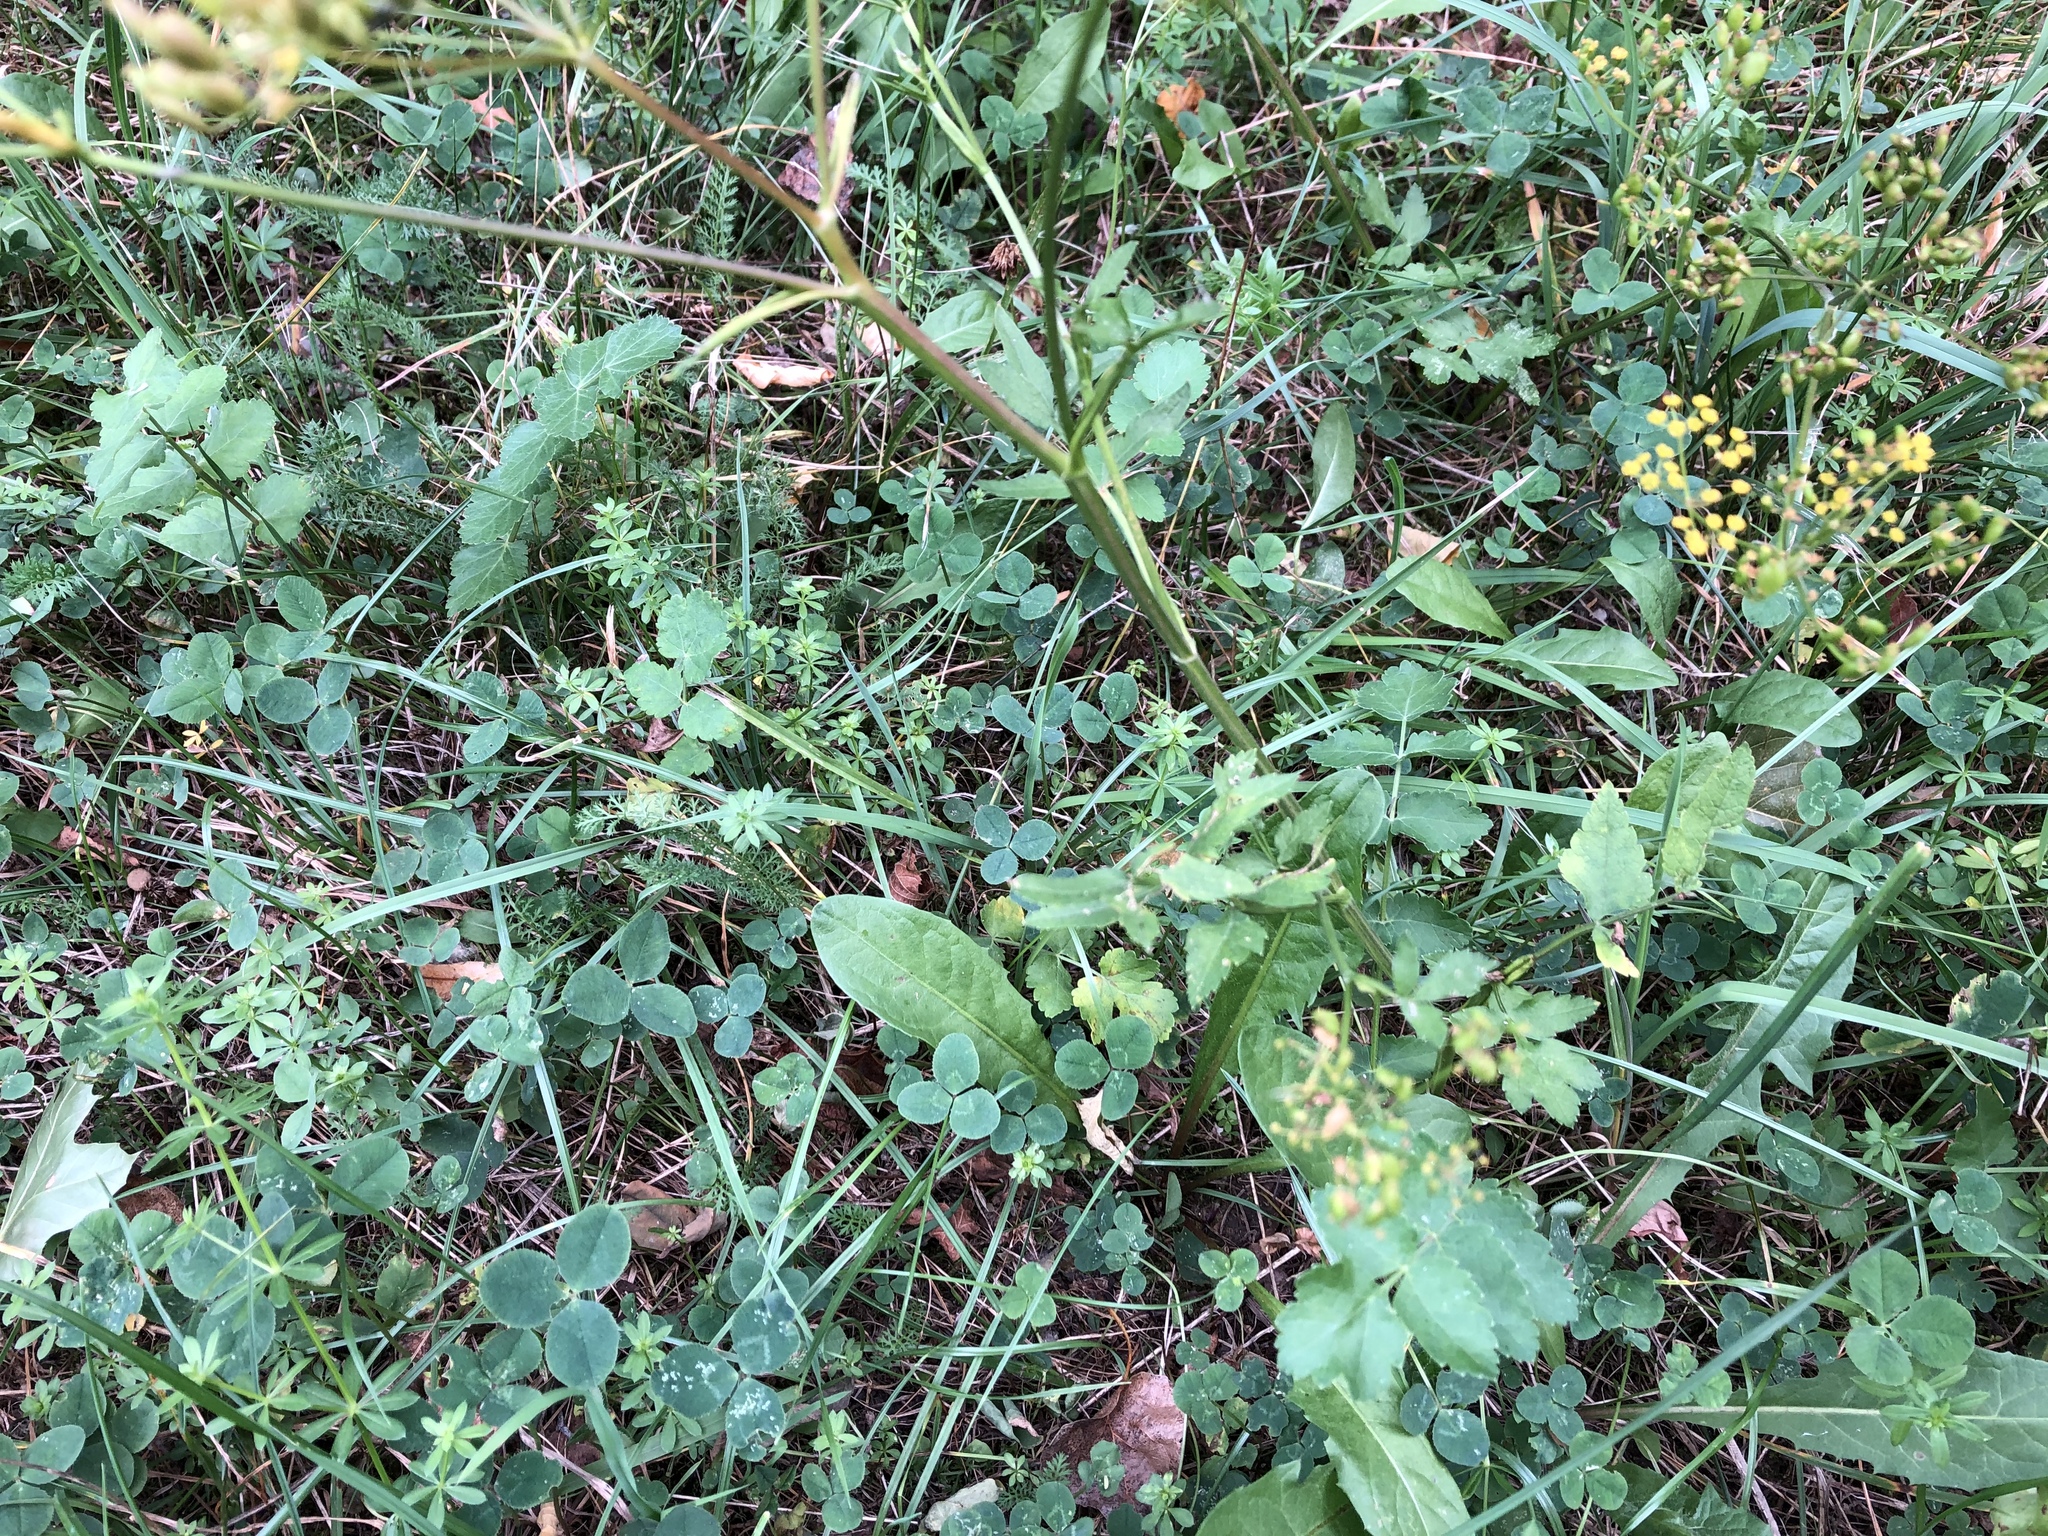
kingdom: Plantae
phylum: Tracheophyta
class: Magnoliopsida
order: Apiales
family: Apiaceae
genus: Pastinaca
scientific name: Pastinaca sativa
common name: Wild parsnip
